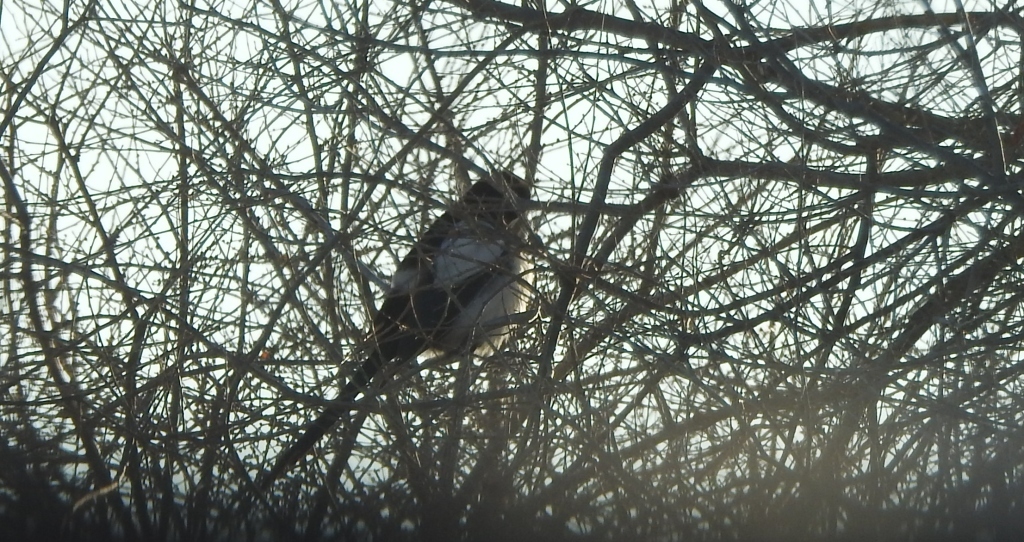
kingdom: Animalia
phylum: Chordata
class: Aves
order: Passeriformes
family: Corvidae
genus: Pica
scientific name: Pica pica
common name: Eurasian magpie
